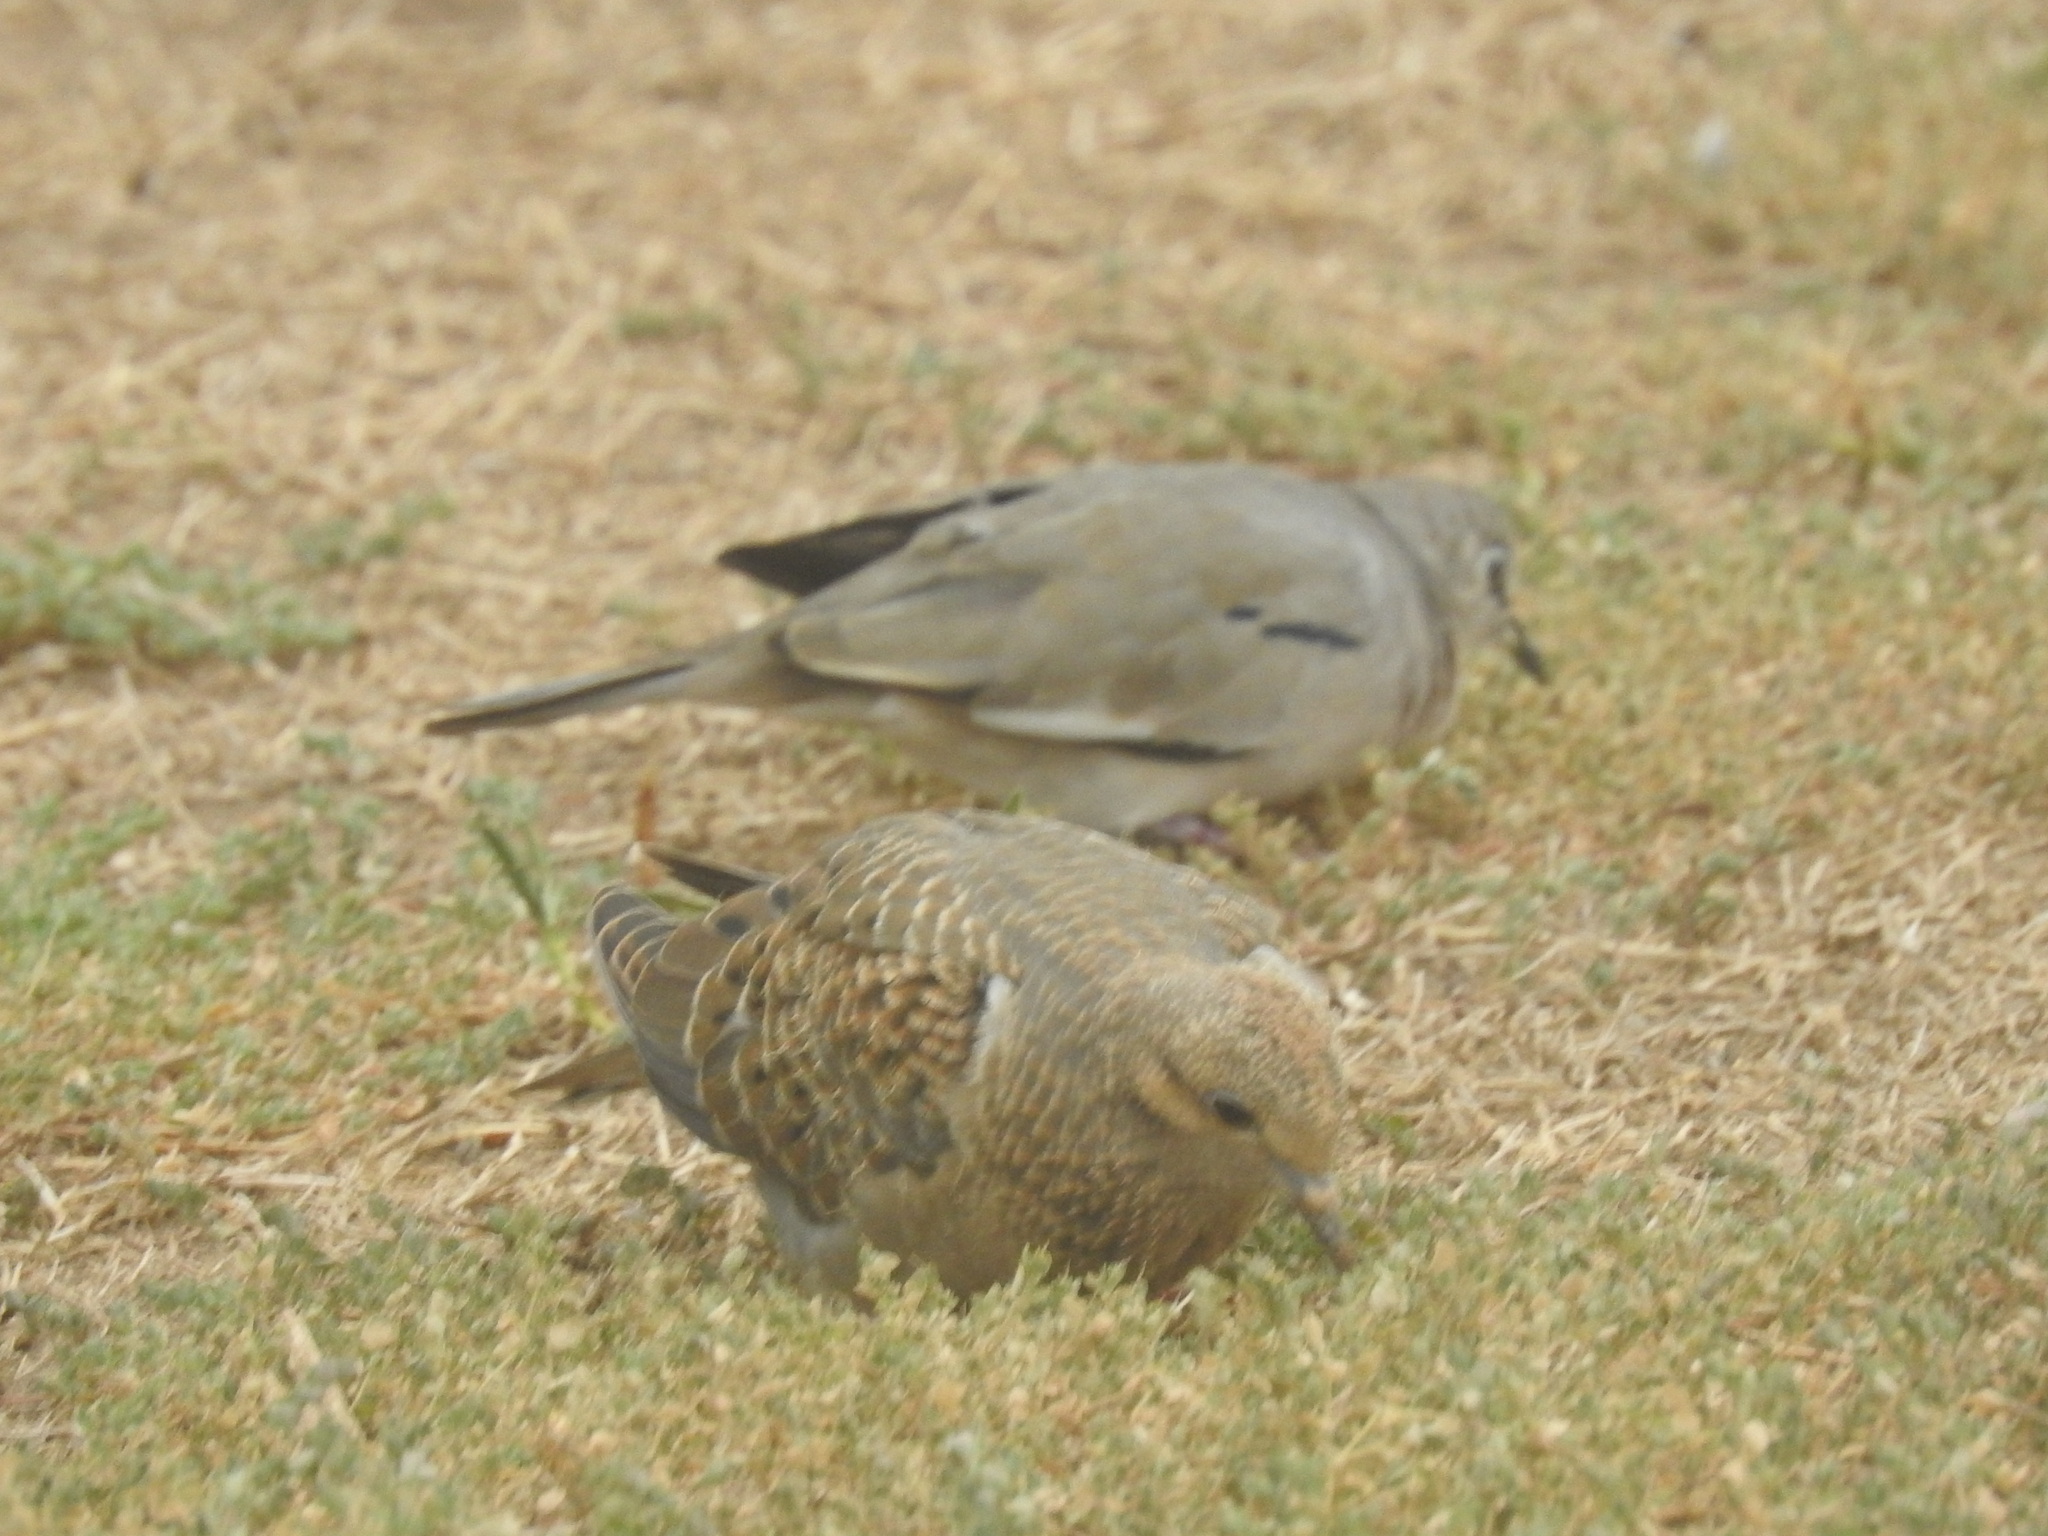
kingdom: Animalia
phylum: Chordata
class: Aves
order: Columbiformes
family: Columbidae
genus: Zenaida
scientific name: Zenaida auriculata
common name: Eared dove
